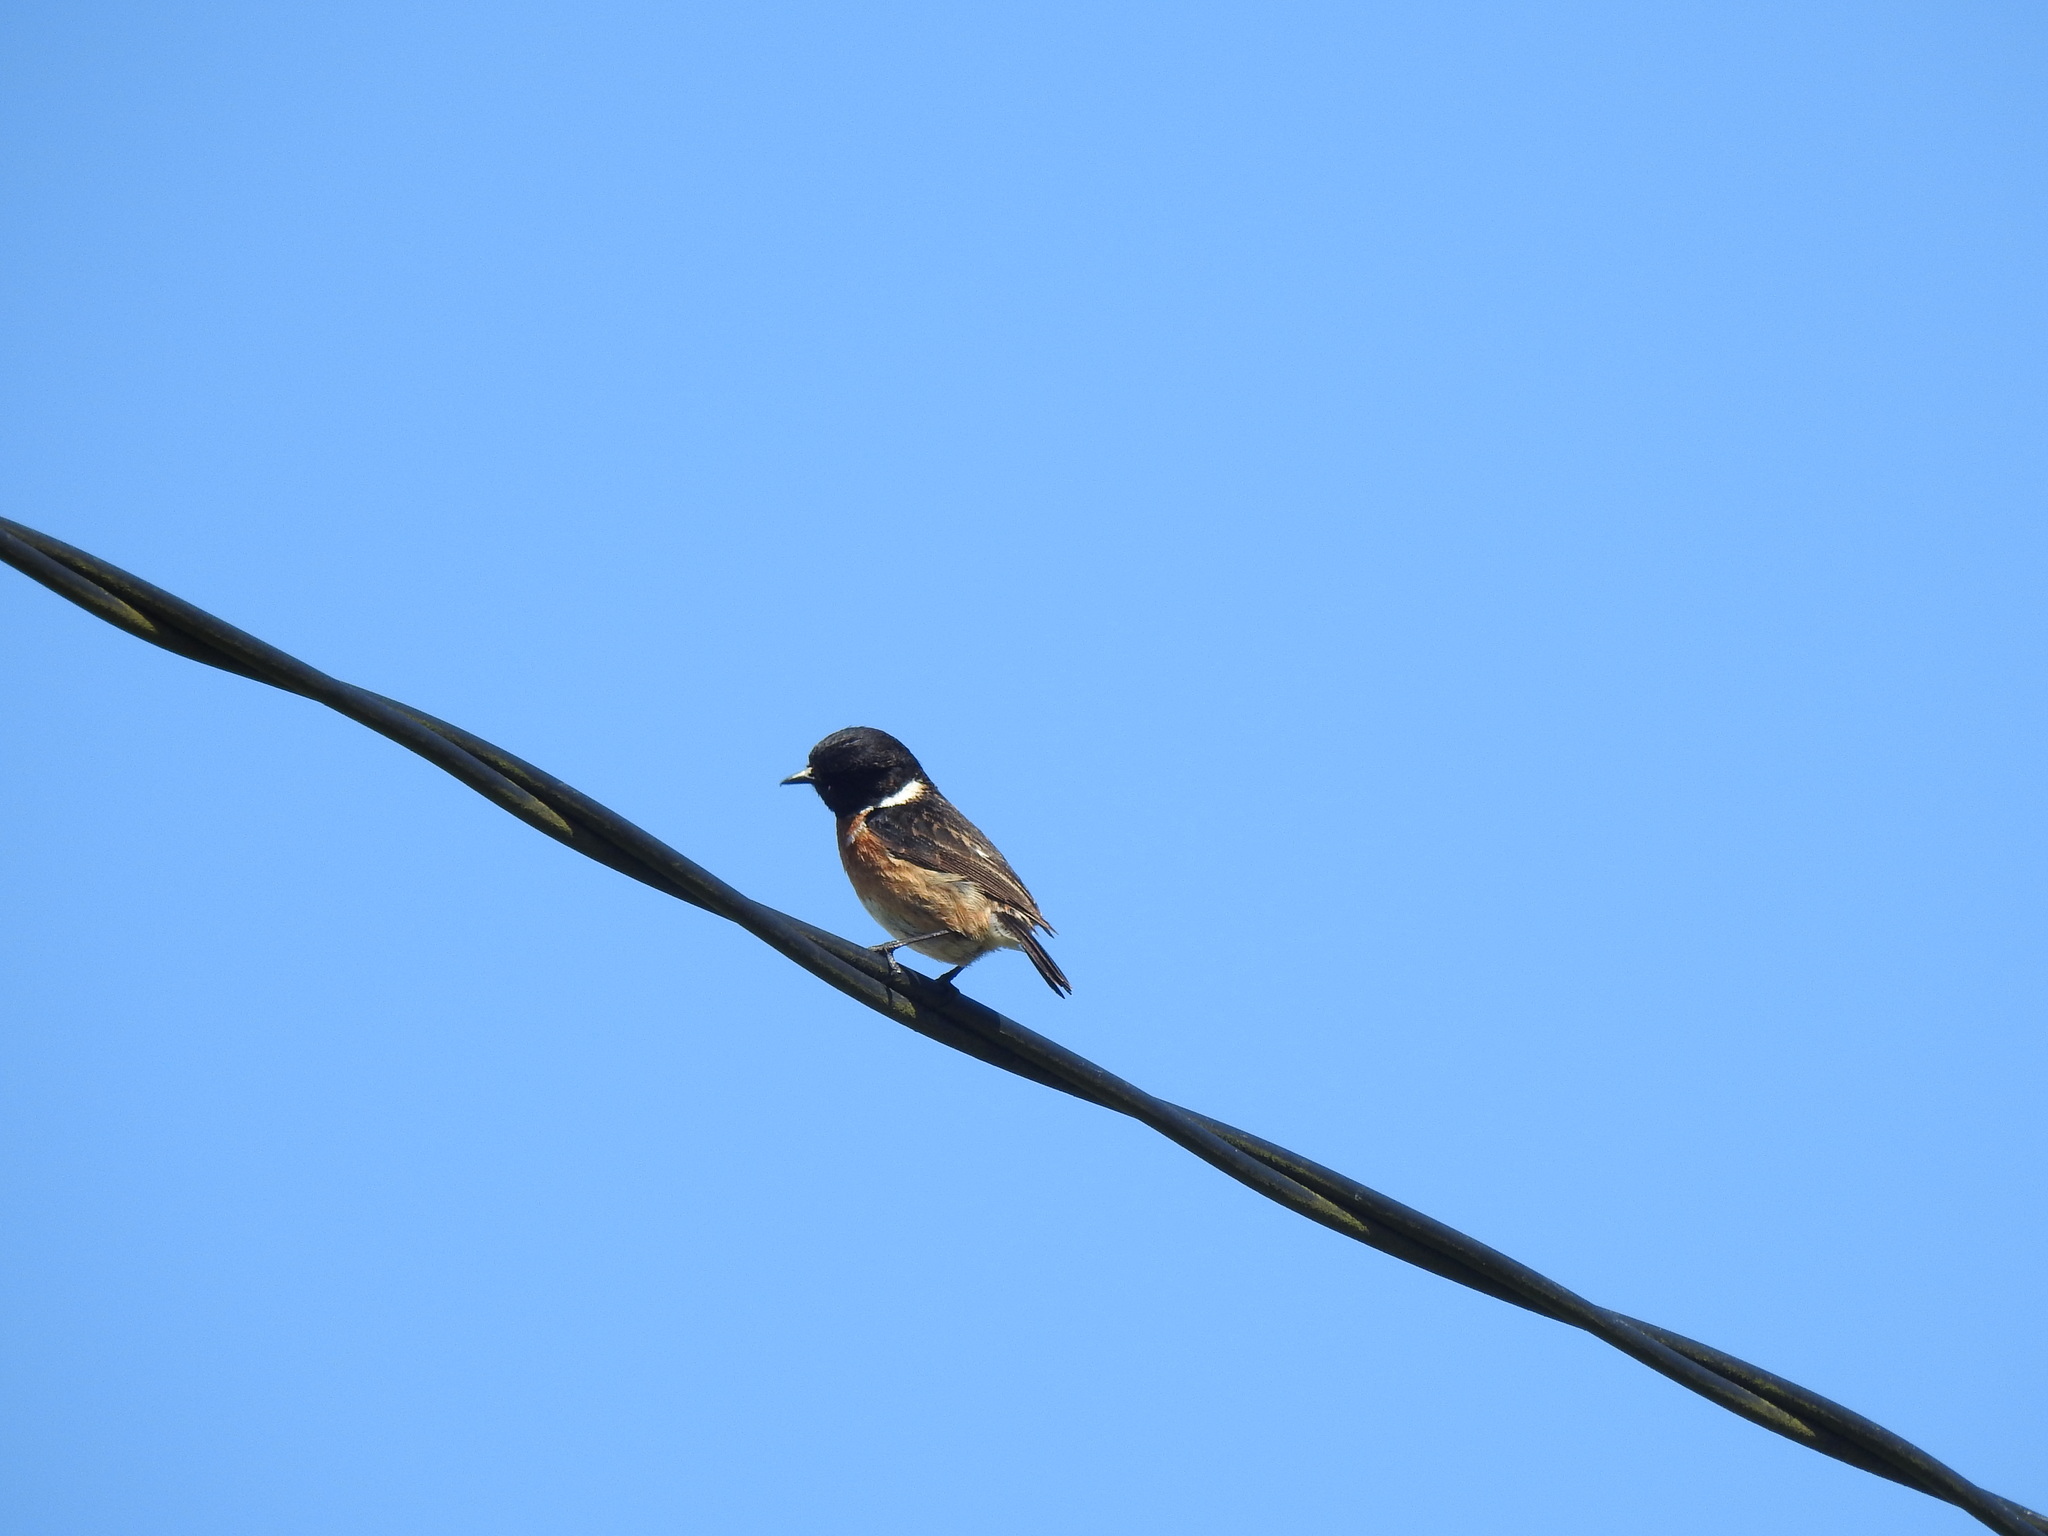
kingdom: Animalia
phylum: Chordata
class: Aves
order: Passeriformes
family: Muscicapidae
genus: Saxicola
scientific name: Saxicola rubicola
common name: European stonechat
